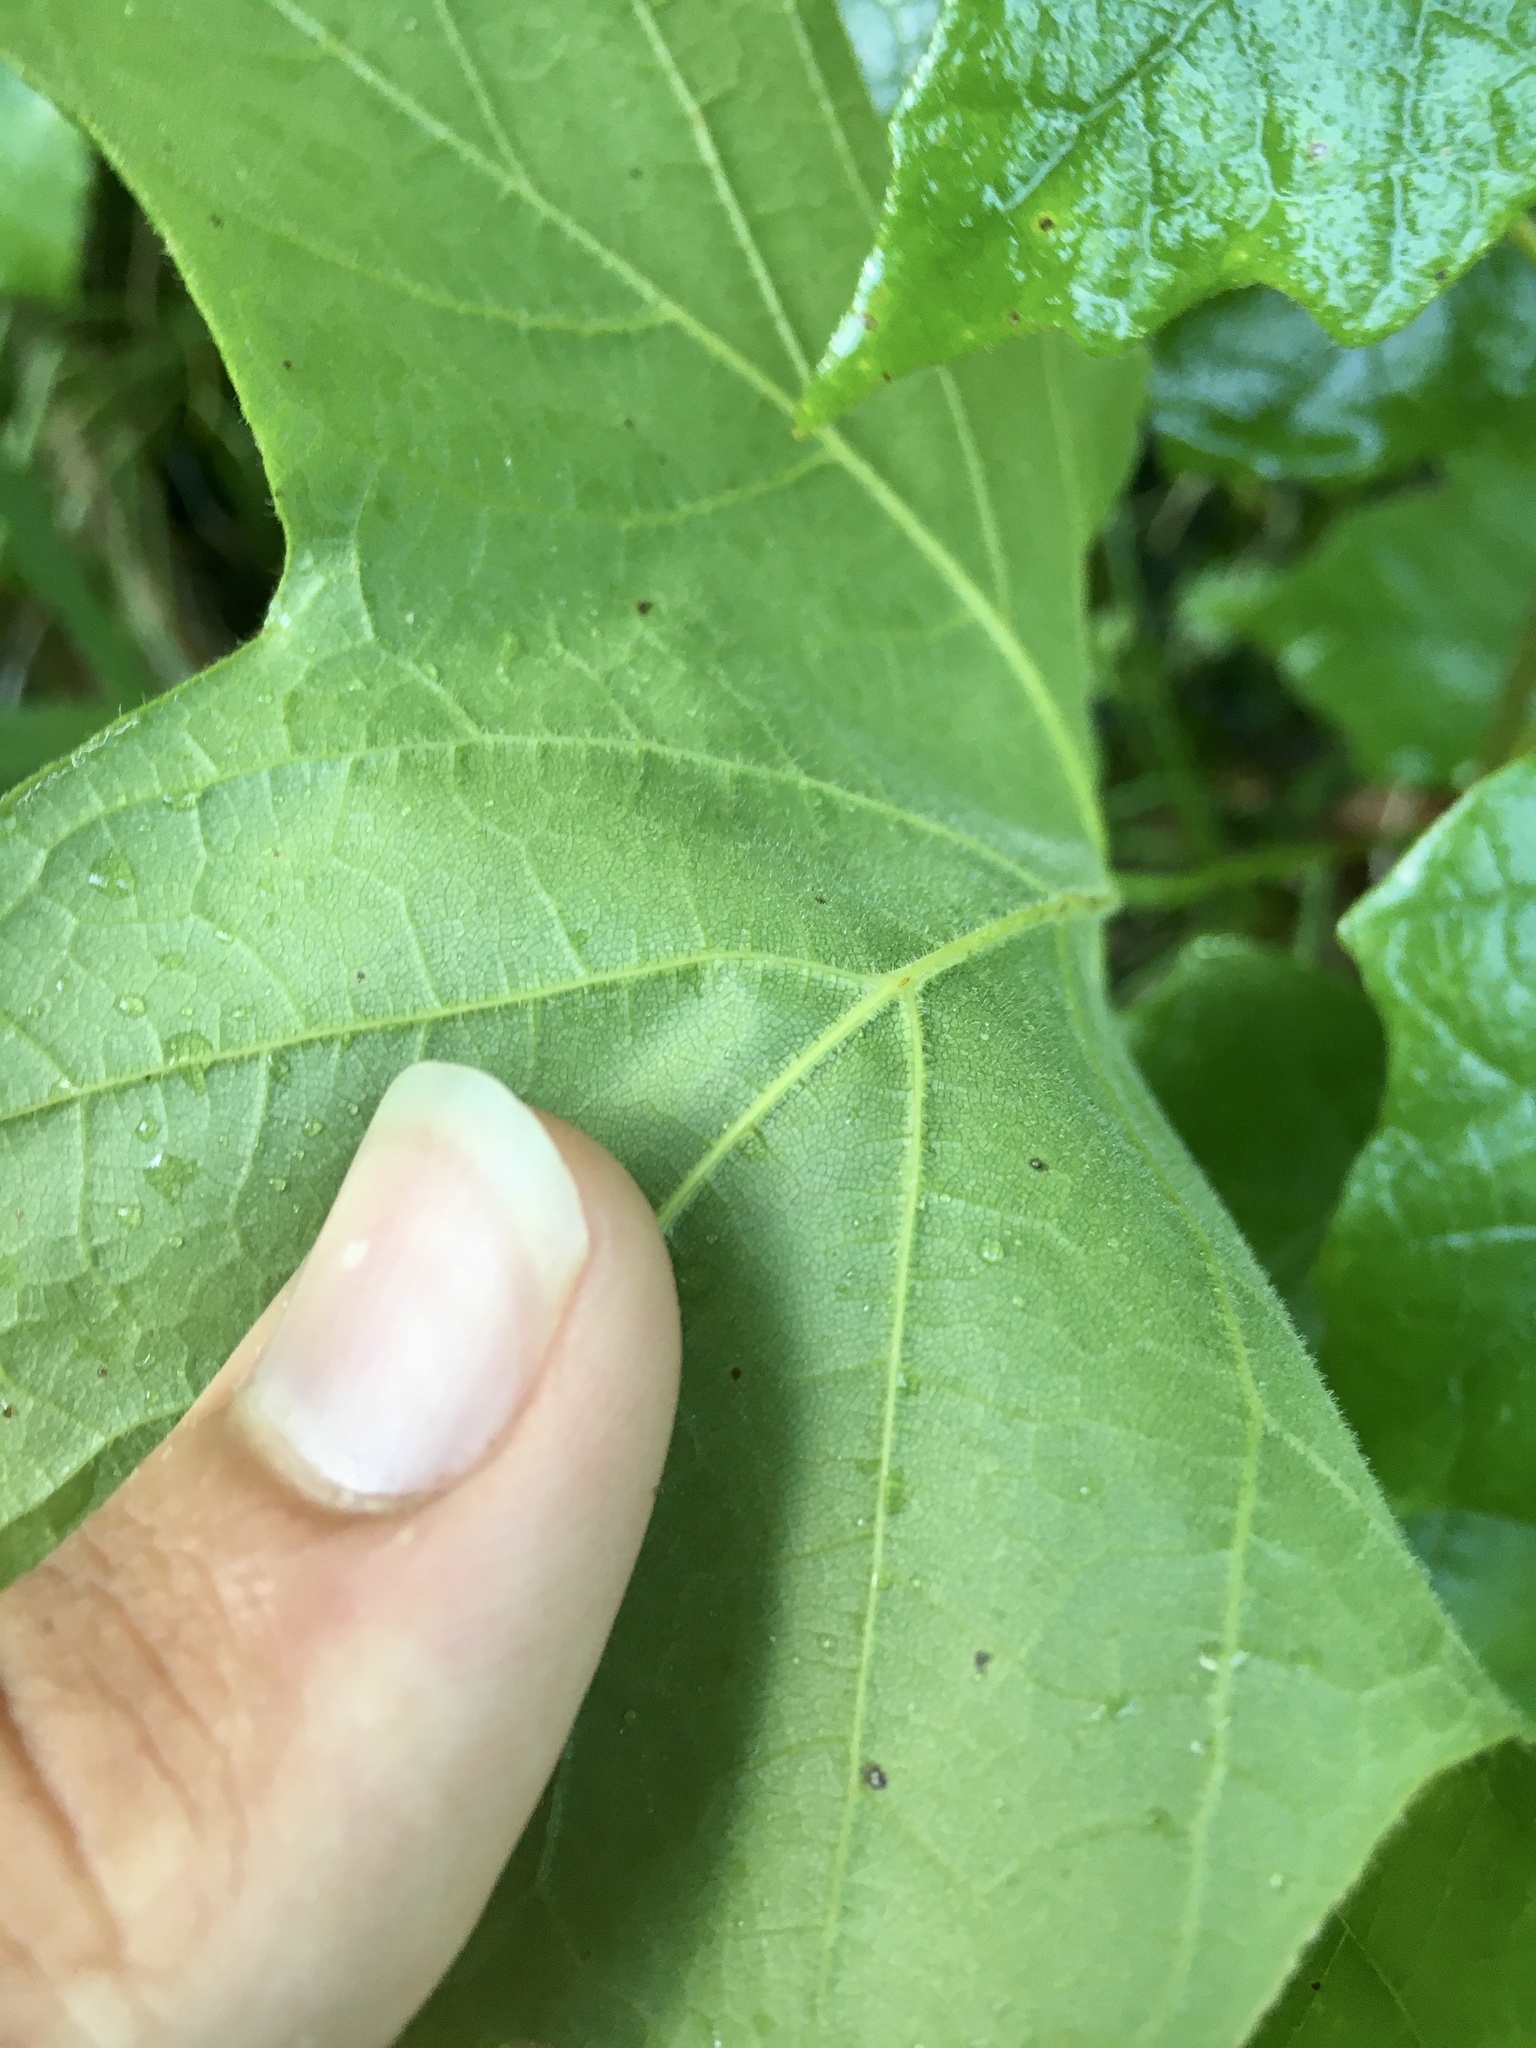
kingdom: Plantae
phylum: Tracheophyta
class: Magnoliopsida
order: Sapindales
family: Sapindaceae
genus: Acer
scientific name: Acer nigrum
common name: Black maple
